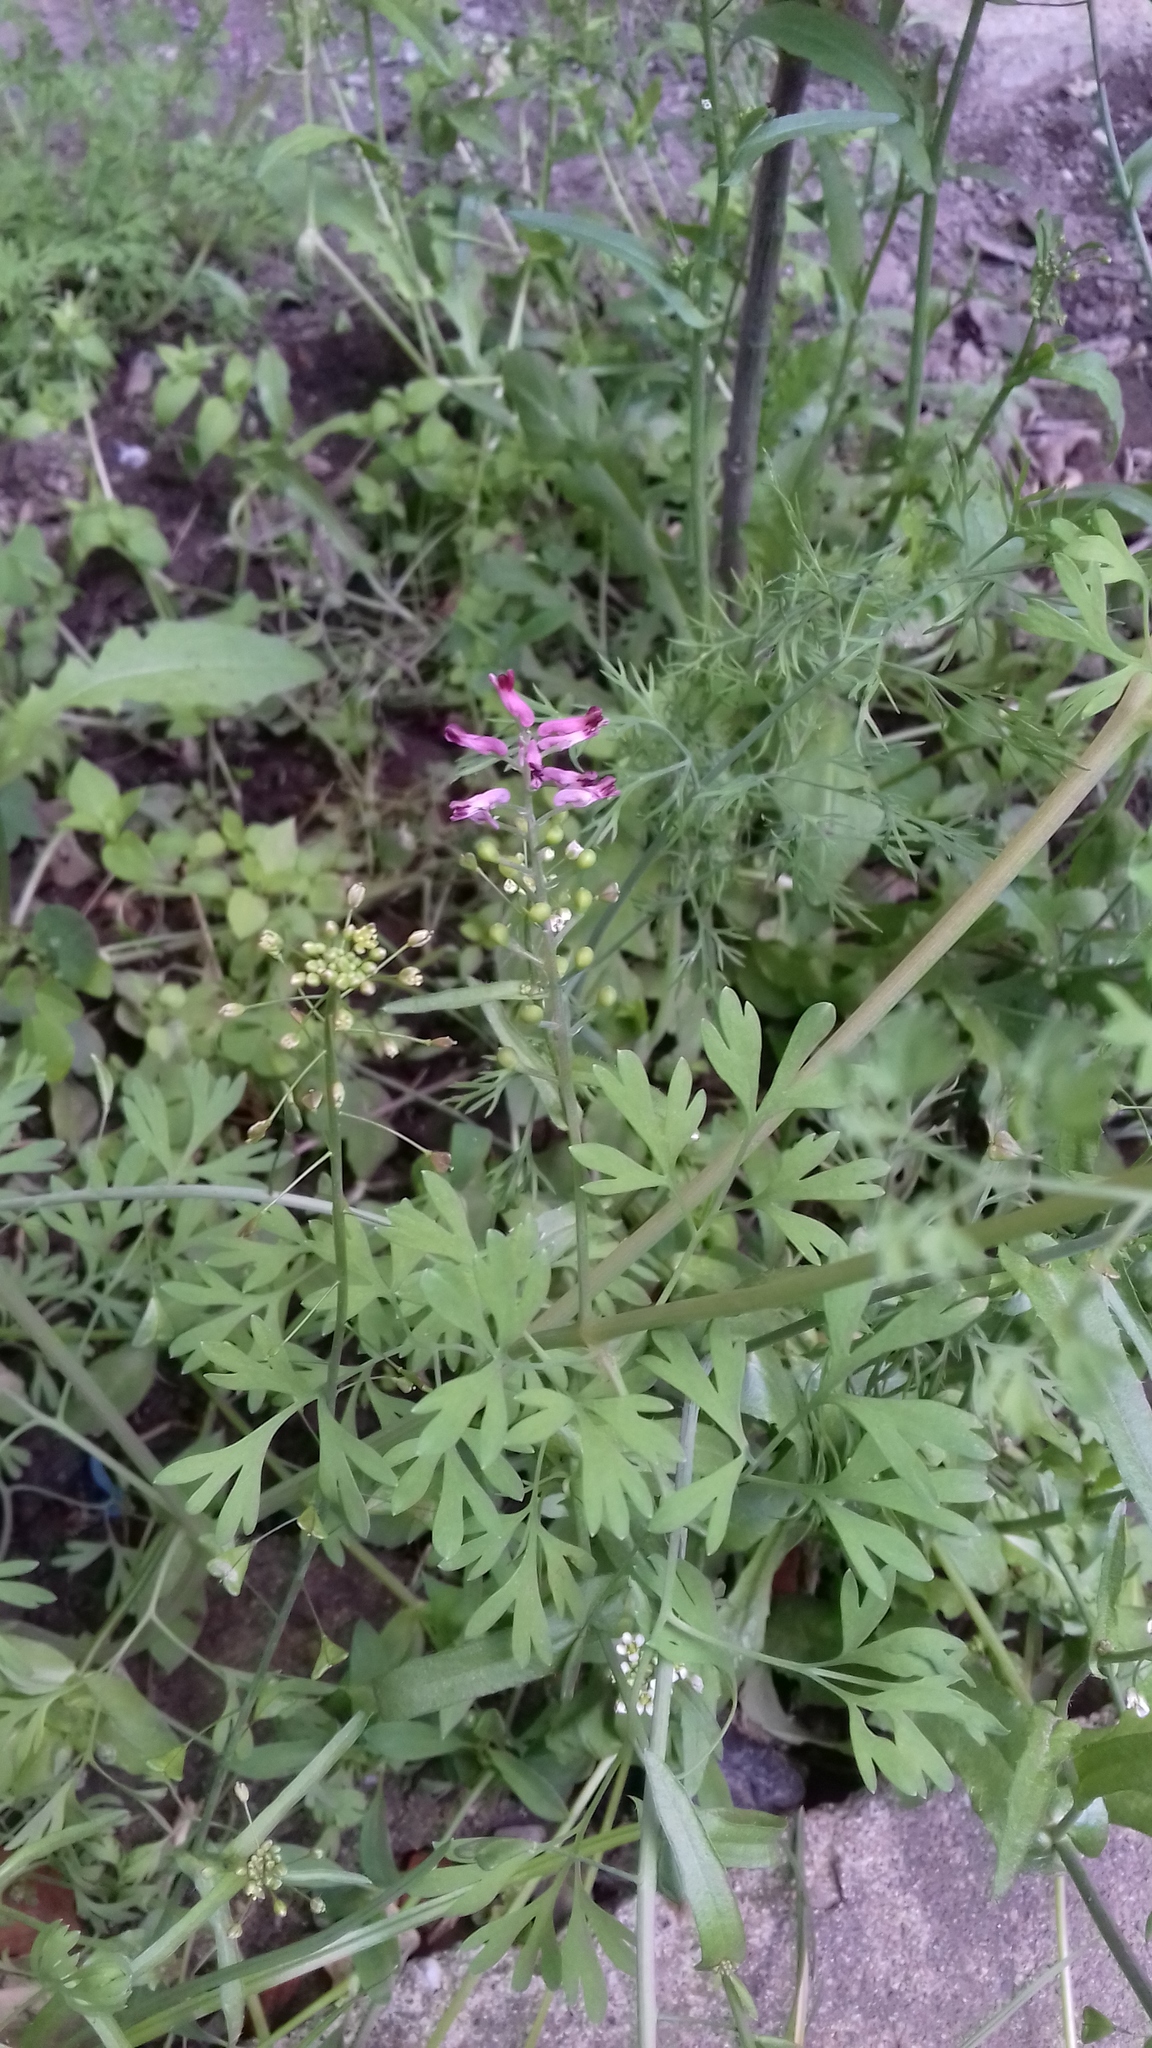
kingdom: Plantae
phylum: Tracheophyta
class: Magnoliopsida
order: Ranunculales
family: Papaveraceae
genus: Fumaria
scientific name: Fumaria schleicheri
